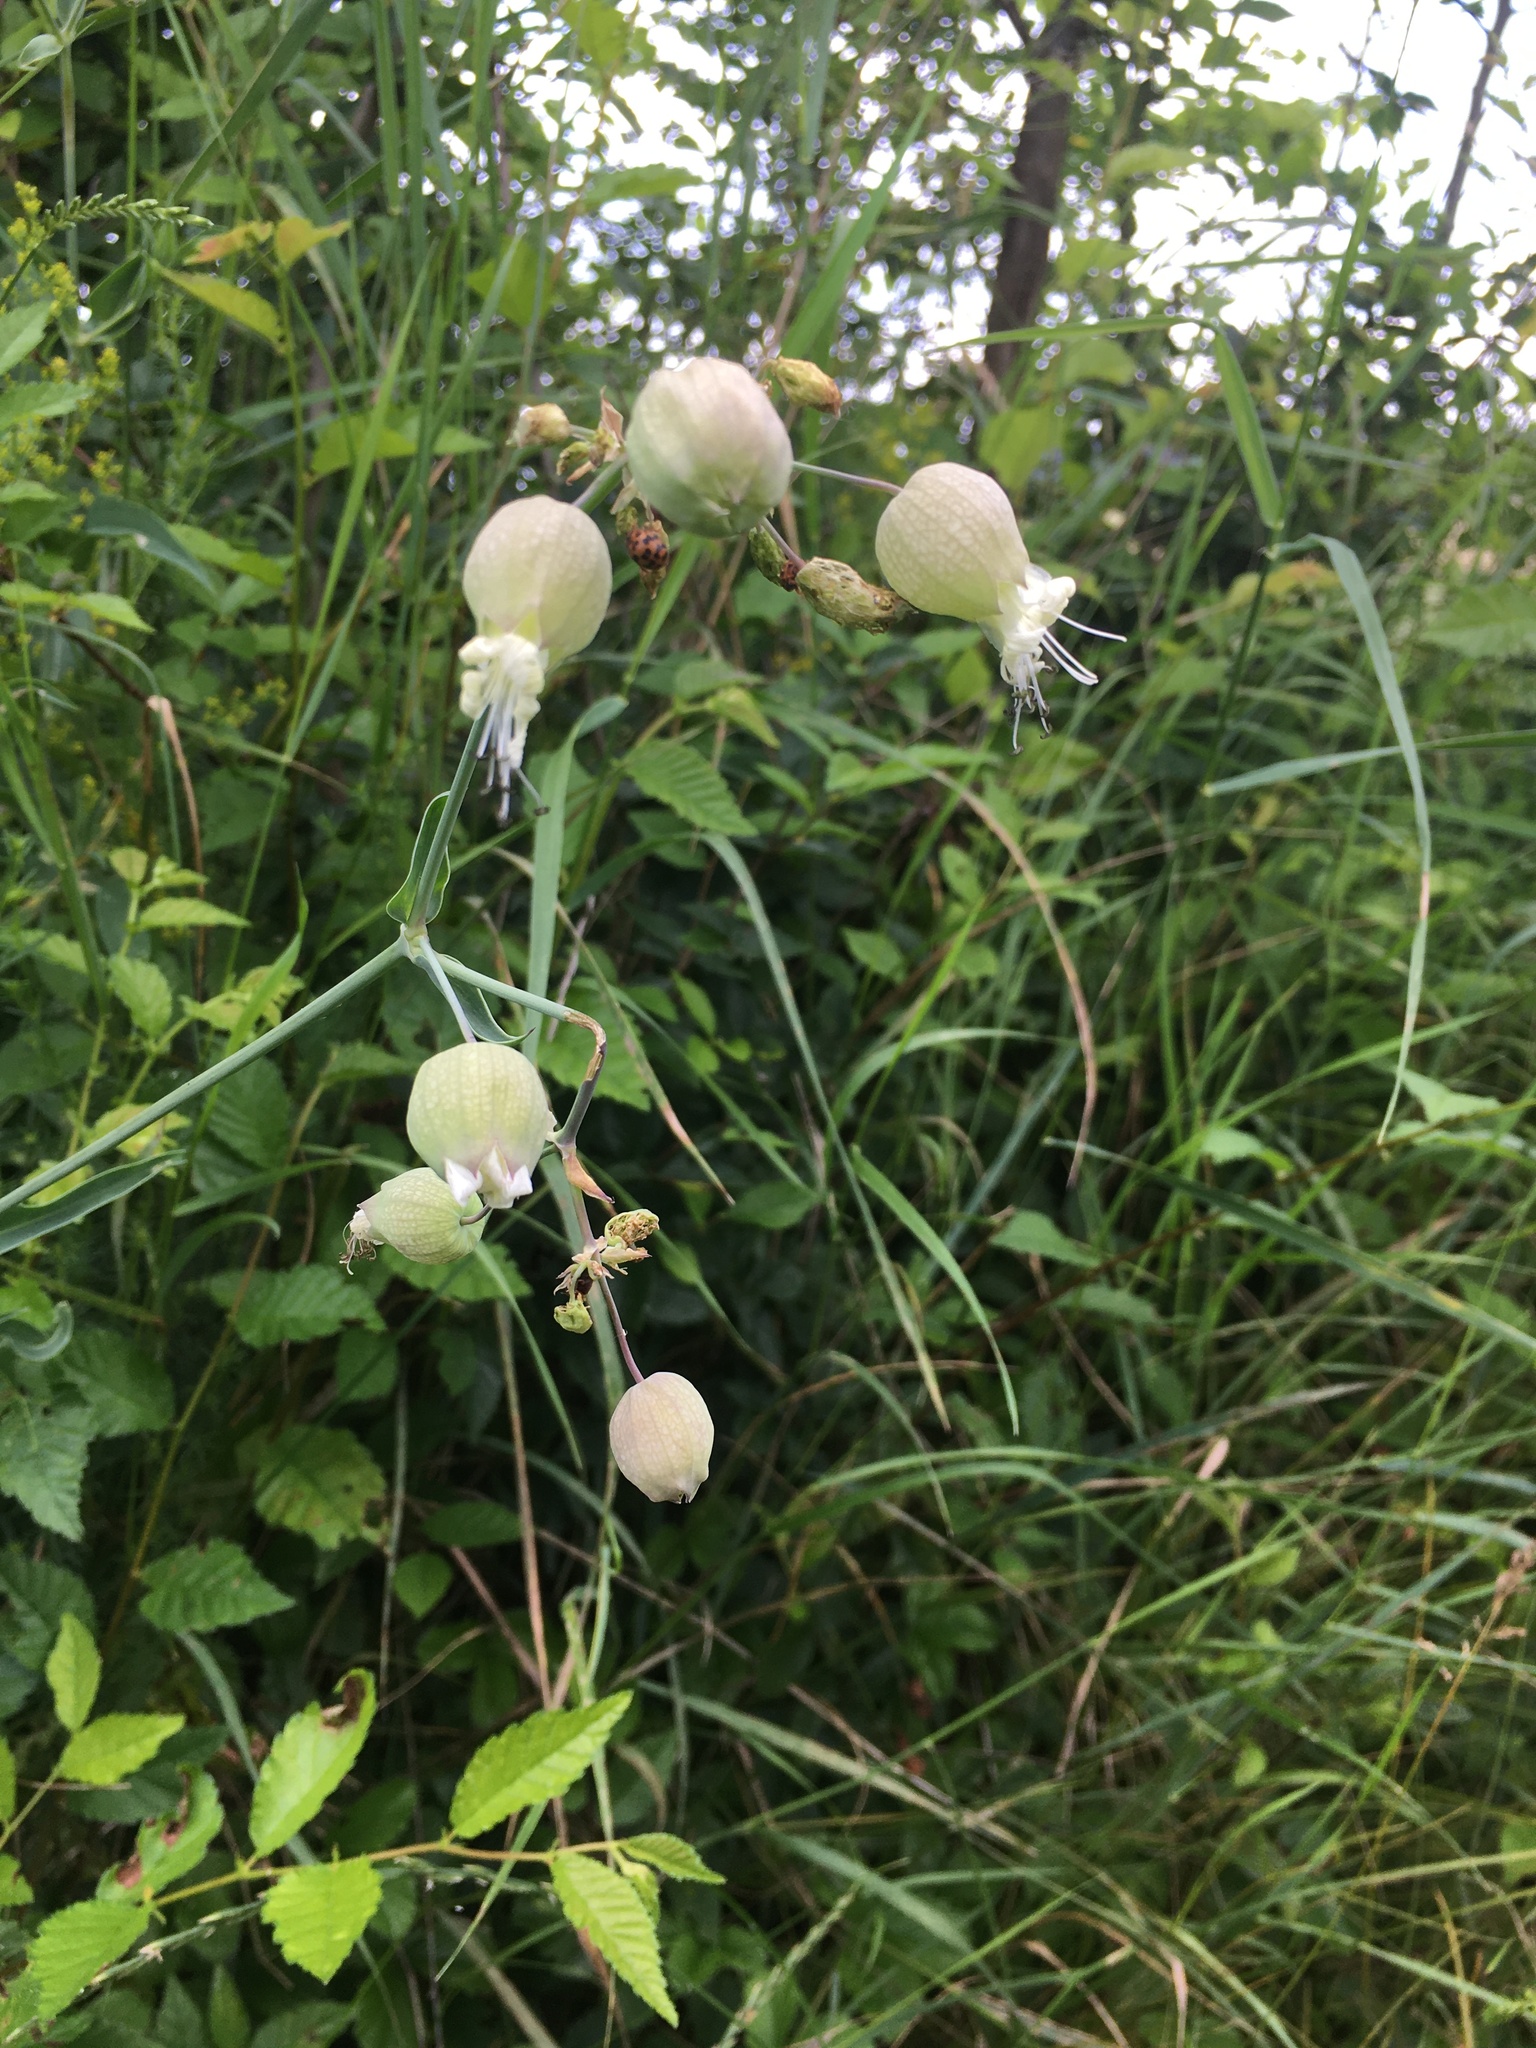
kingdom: Plantae
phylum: Tracheophyta
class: Magnoliopsida
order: Caryophyllales
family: Caryophyllaceae
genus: Silene
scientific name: Silene vulgaris
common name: Bladder campion
